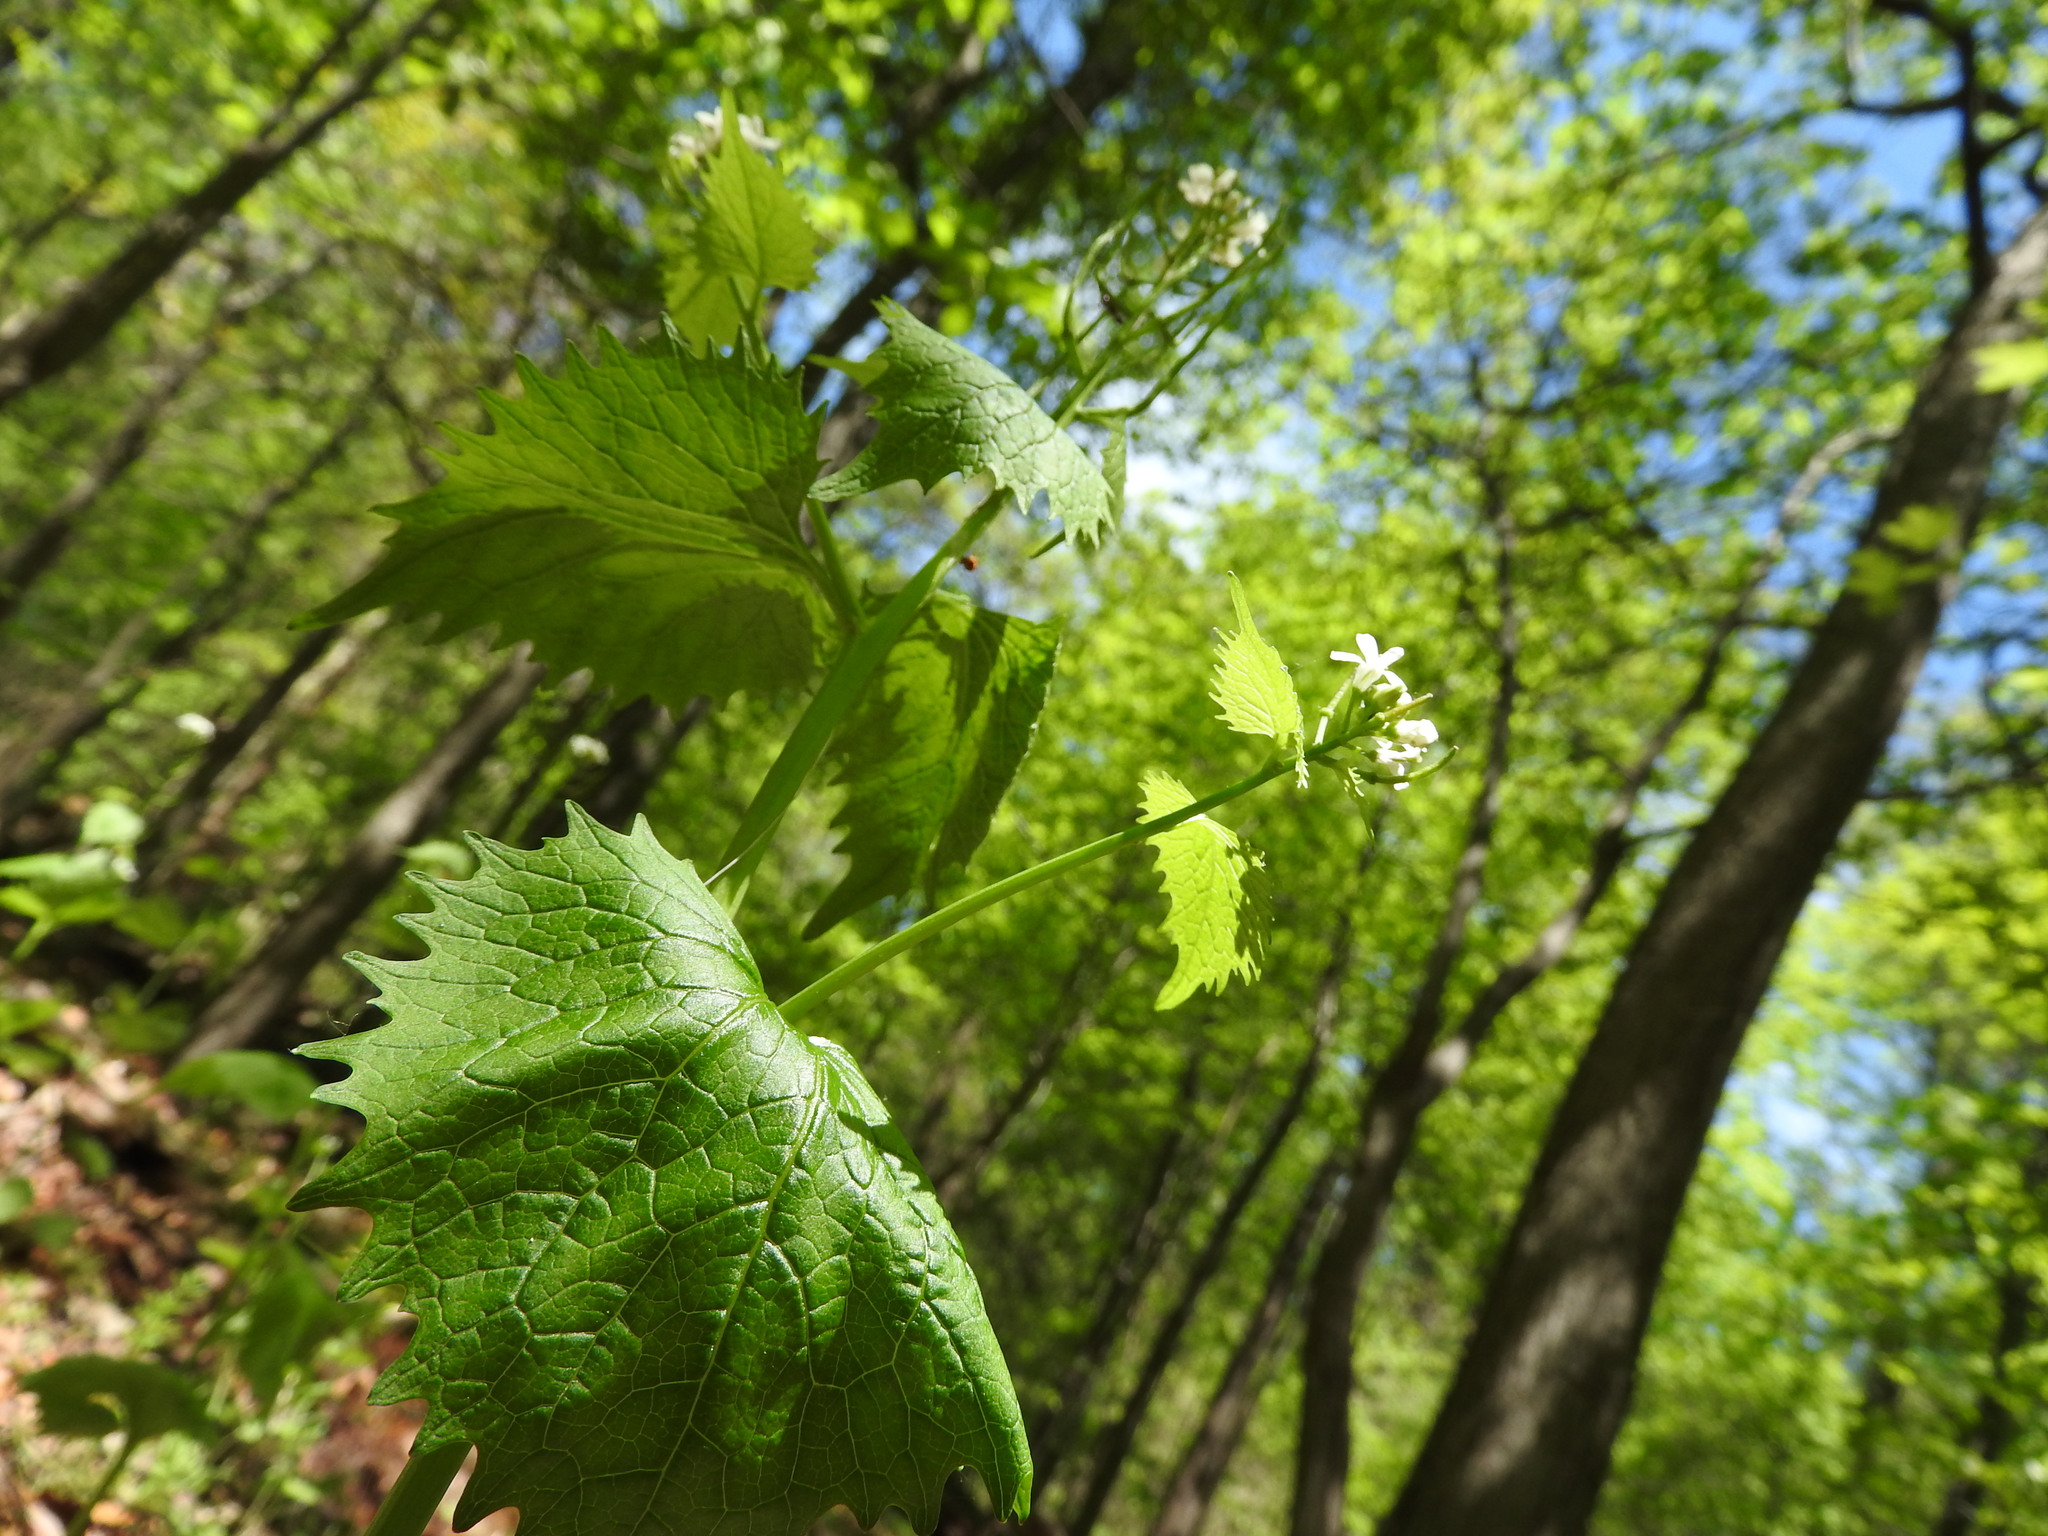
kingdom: Plantae
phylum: Tracheophyta
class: Magnoliopsida
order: Brassicales
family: Brassicaceae
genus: Alliaria
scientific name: Alliaria petiolata
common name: Garlic mustard
